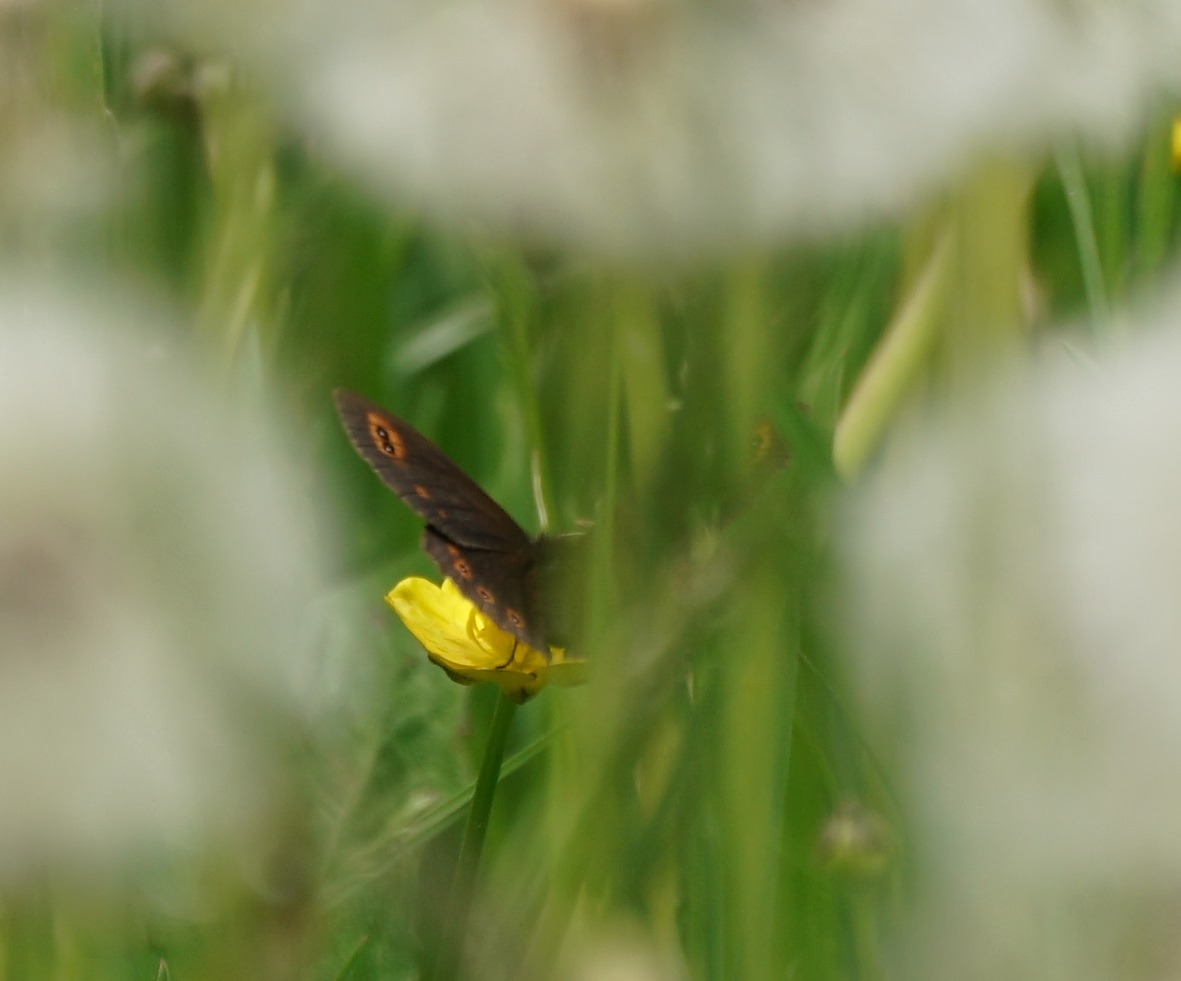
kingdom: Animalia
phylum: Arthropoda
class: Insecta
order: Lepidoptera
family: Nymphalidae
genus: Erebia
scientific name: Erebia medusa
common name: Woodland ringlet
